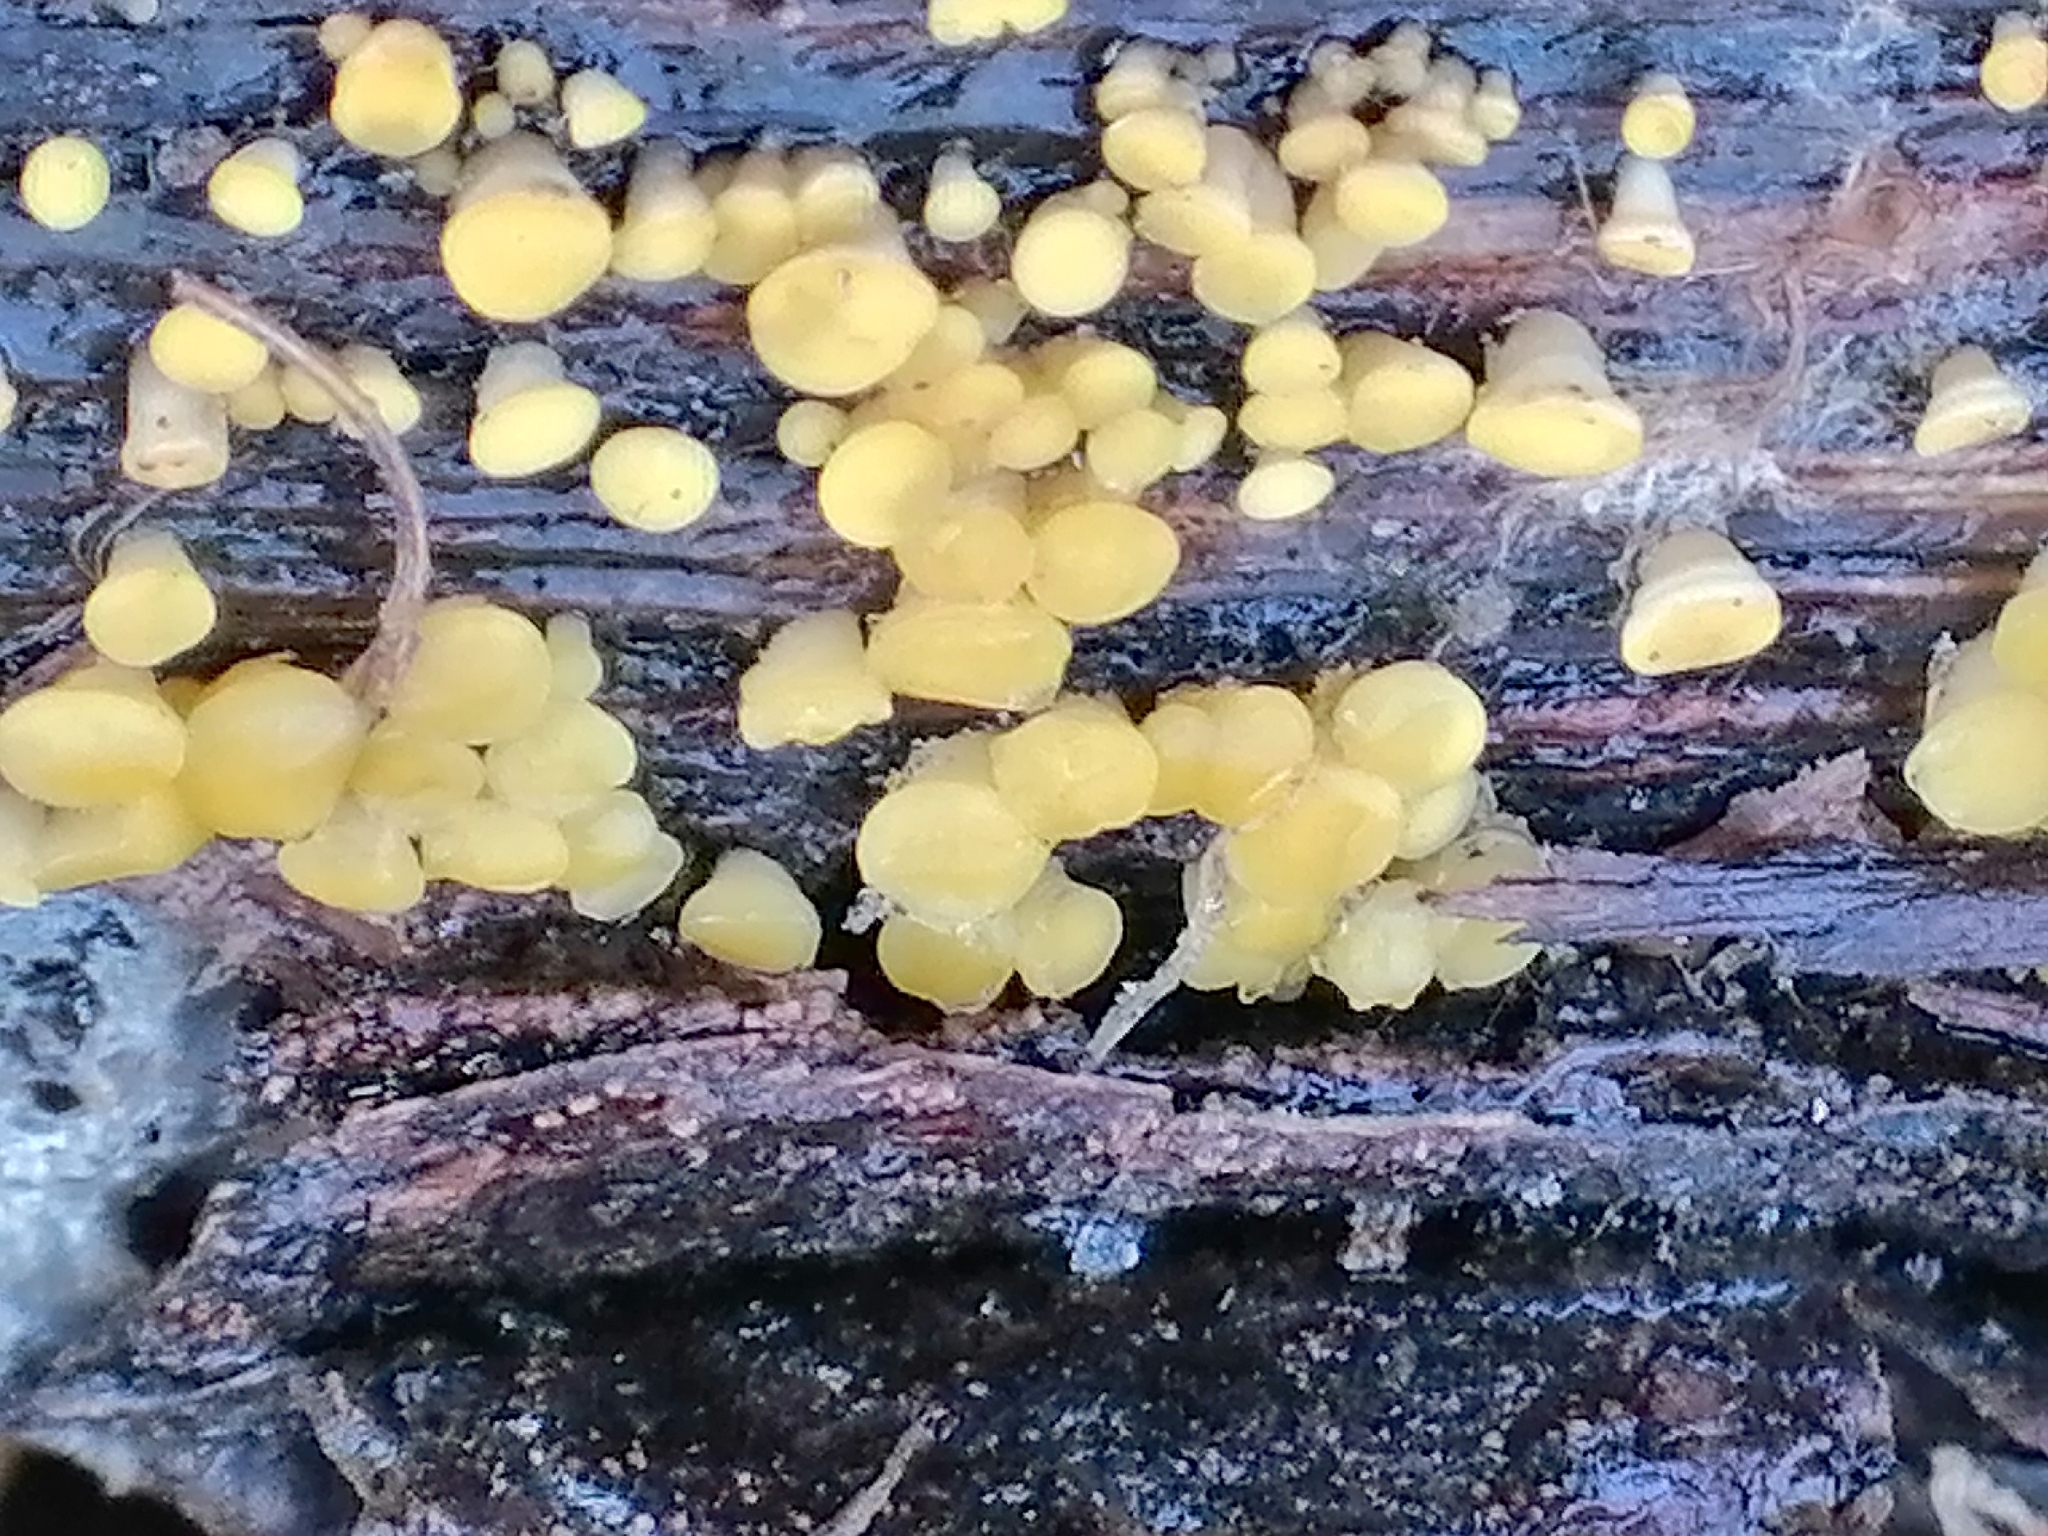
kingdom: Fungi
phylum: Ascomycota
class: Leotiomycetes
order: Helotiales
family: Pezizellaceae
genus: Calycina
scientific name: Calycina citrina
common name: Yellow fairy cups
